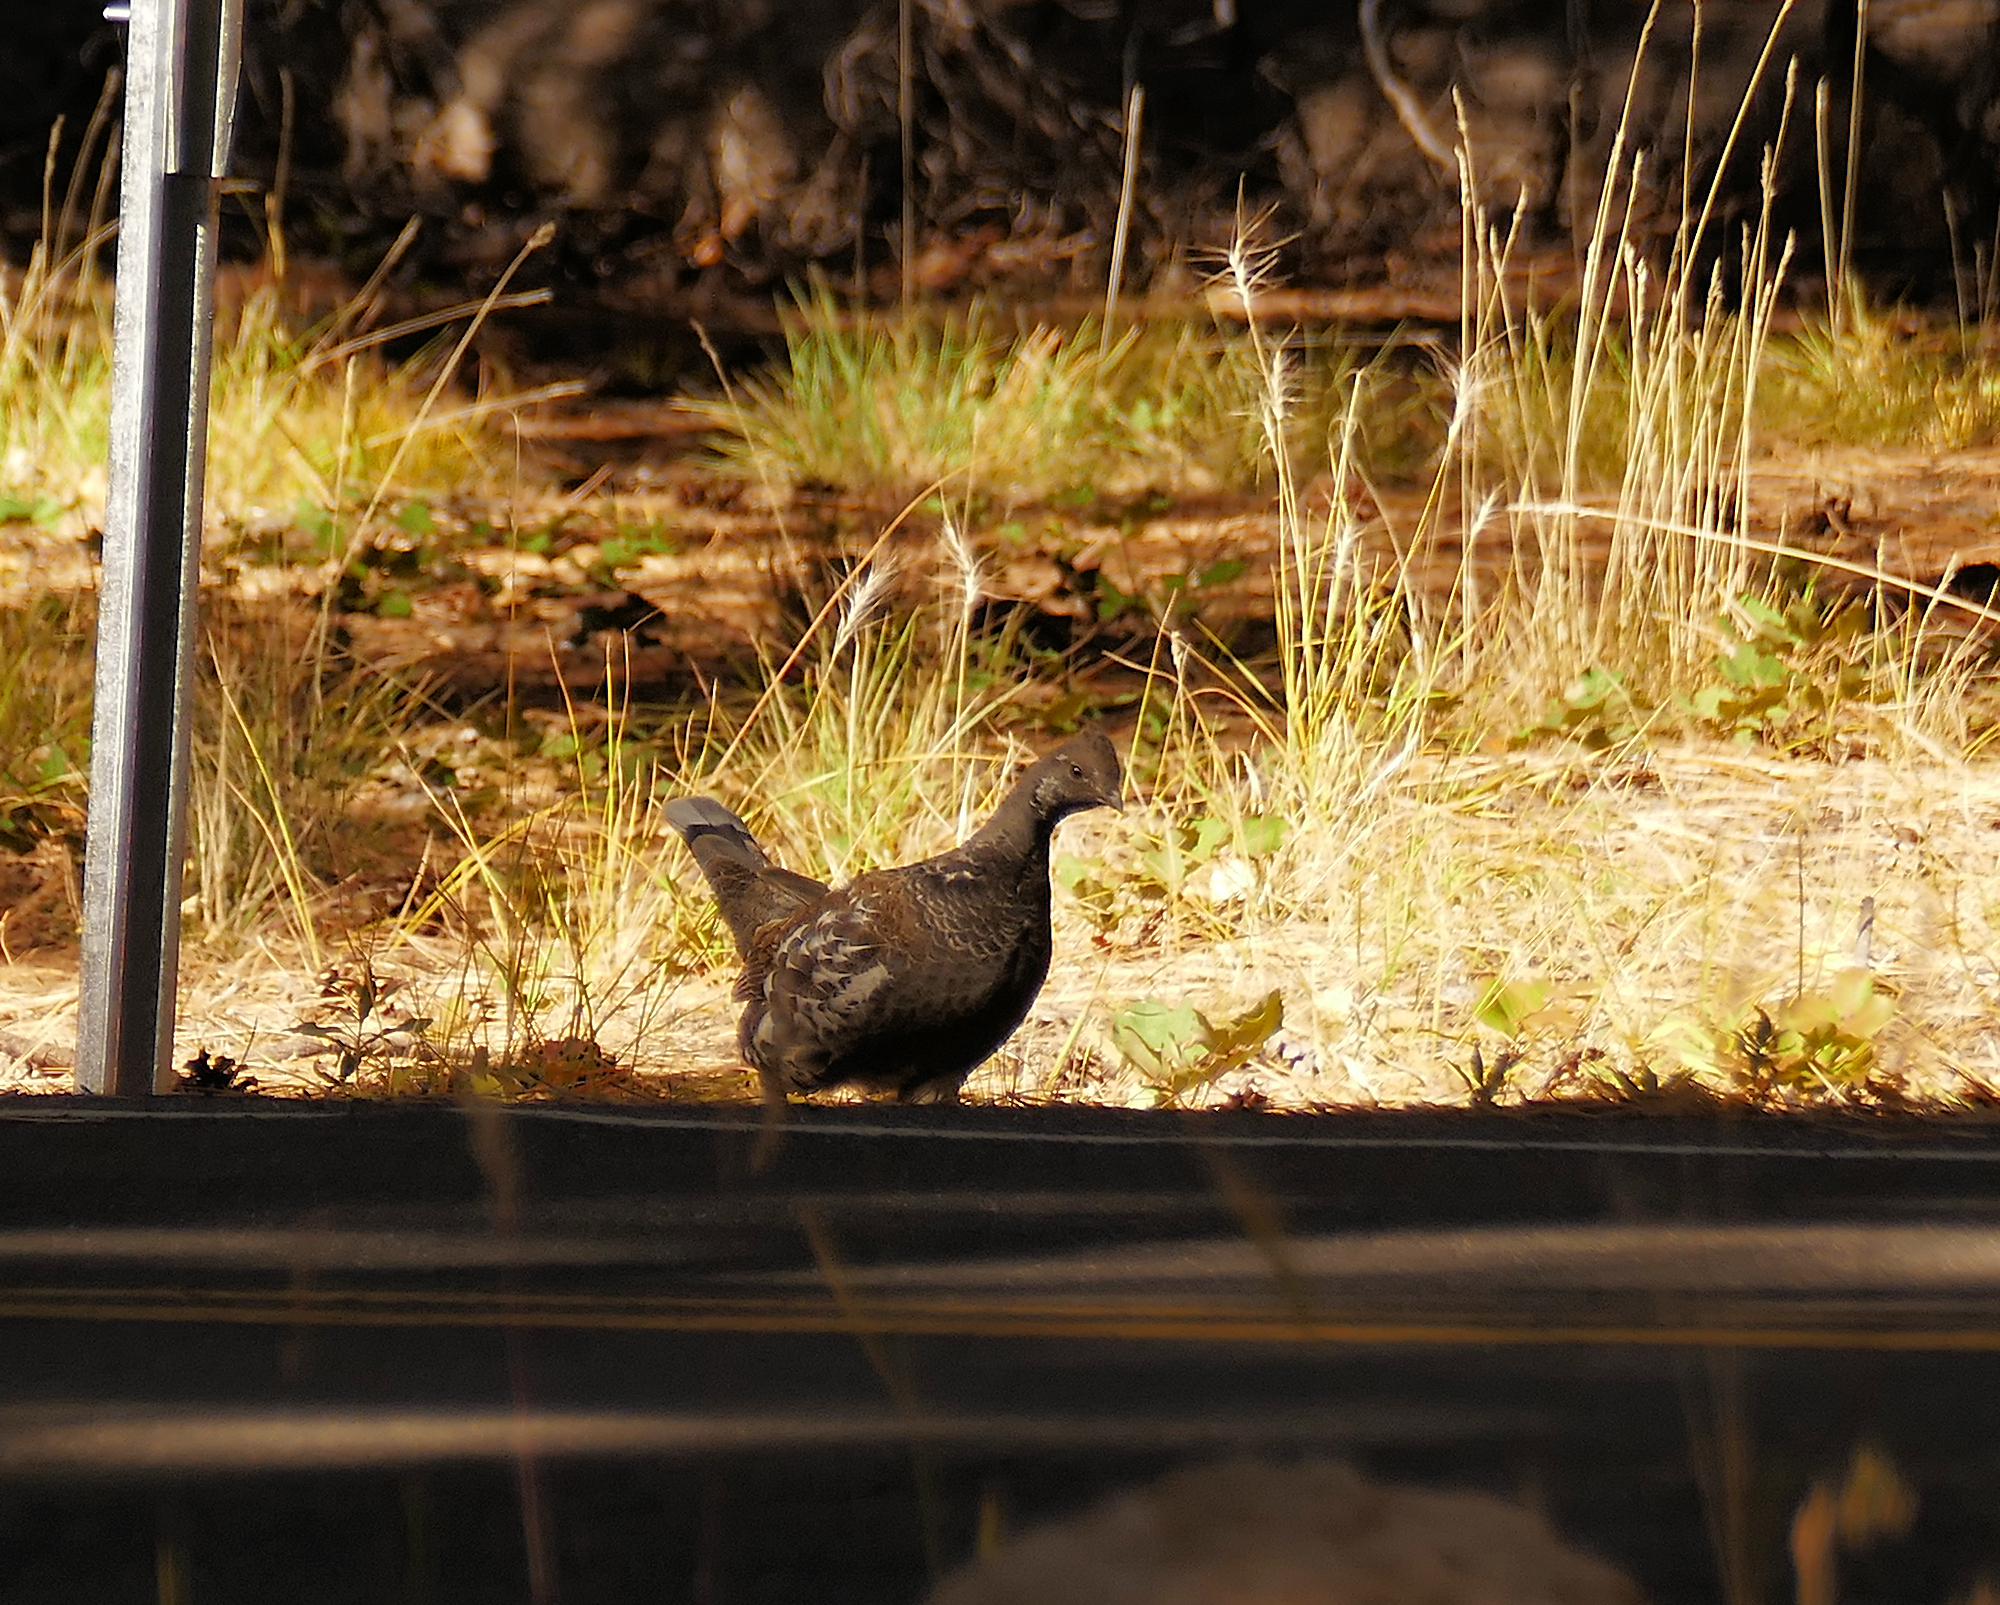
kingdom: Animalia
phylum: Chordata
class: Aves
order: Galliformes
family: Phasianidae
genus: Dendragapus
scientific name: Dendragapus obscurus
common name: Dusky grouse
